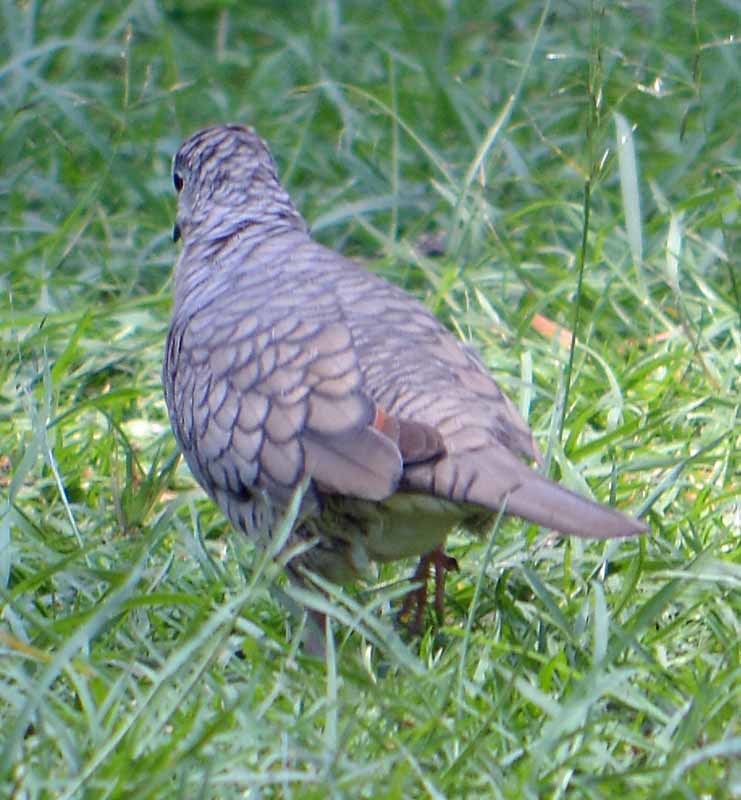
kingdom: Animalia
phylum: Chordata
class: Aves
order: Columbiformes
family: Columbidae
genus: Columbina
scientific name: Columbina inca
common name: Inca dove
